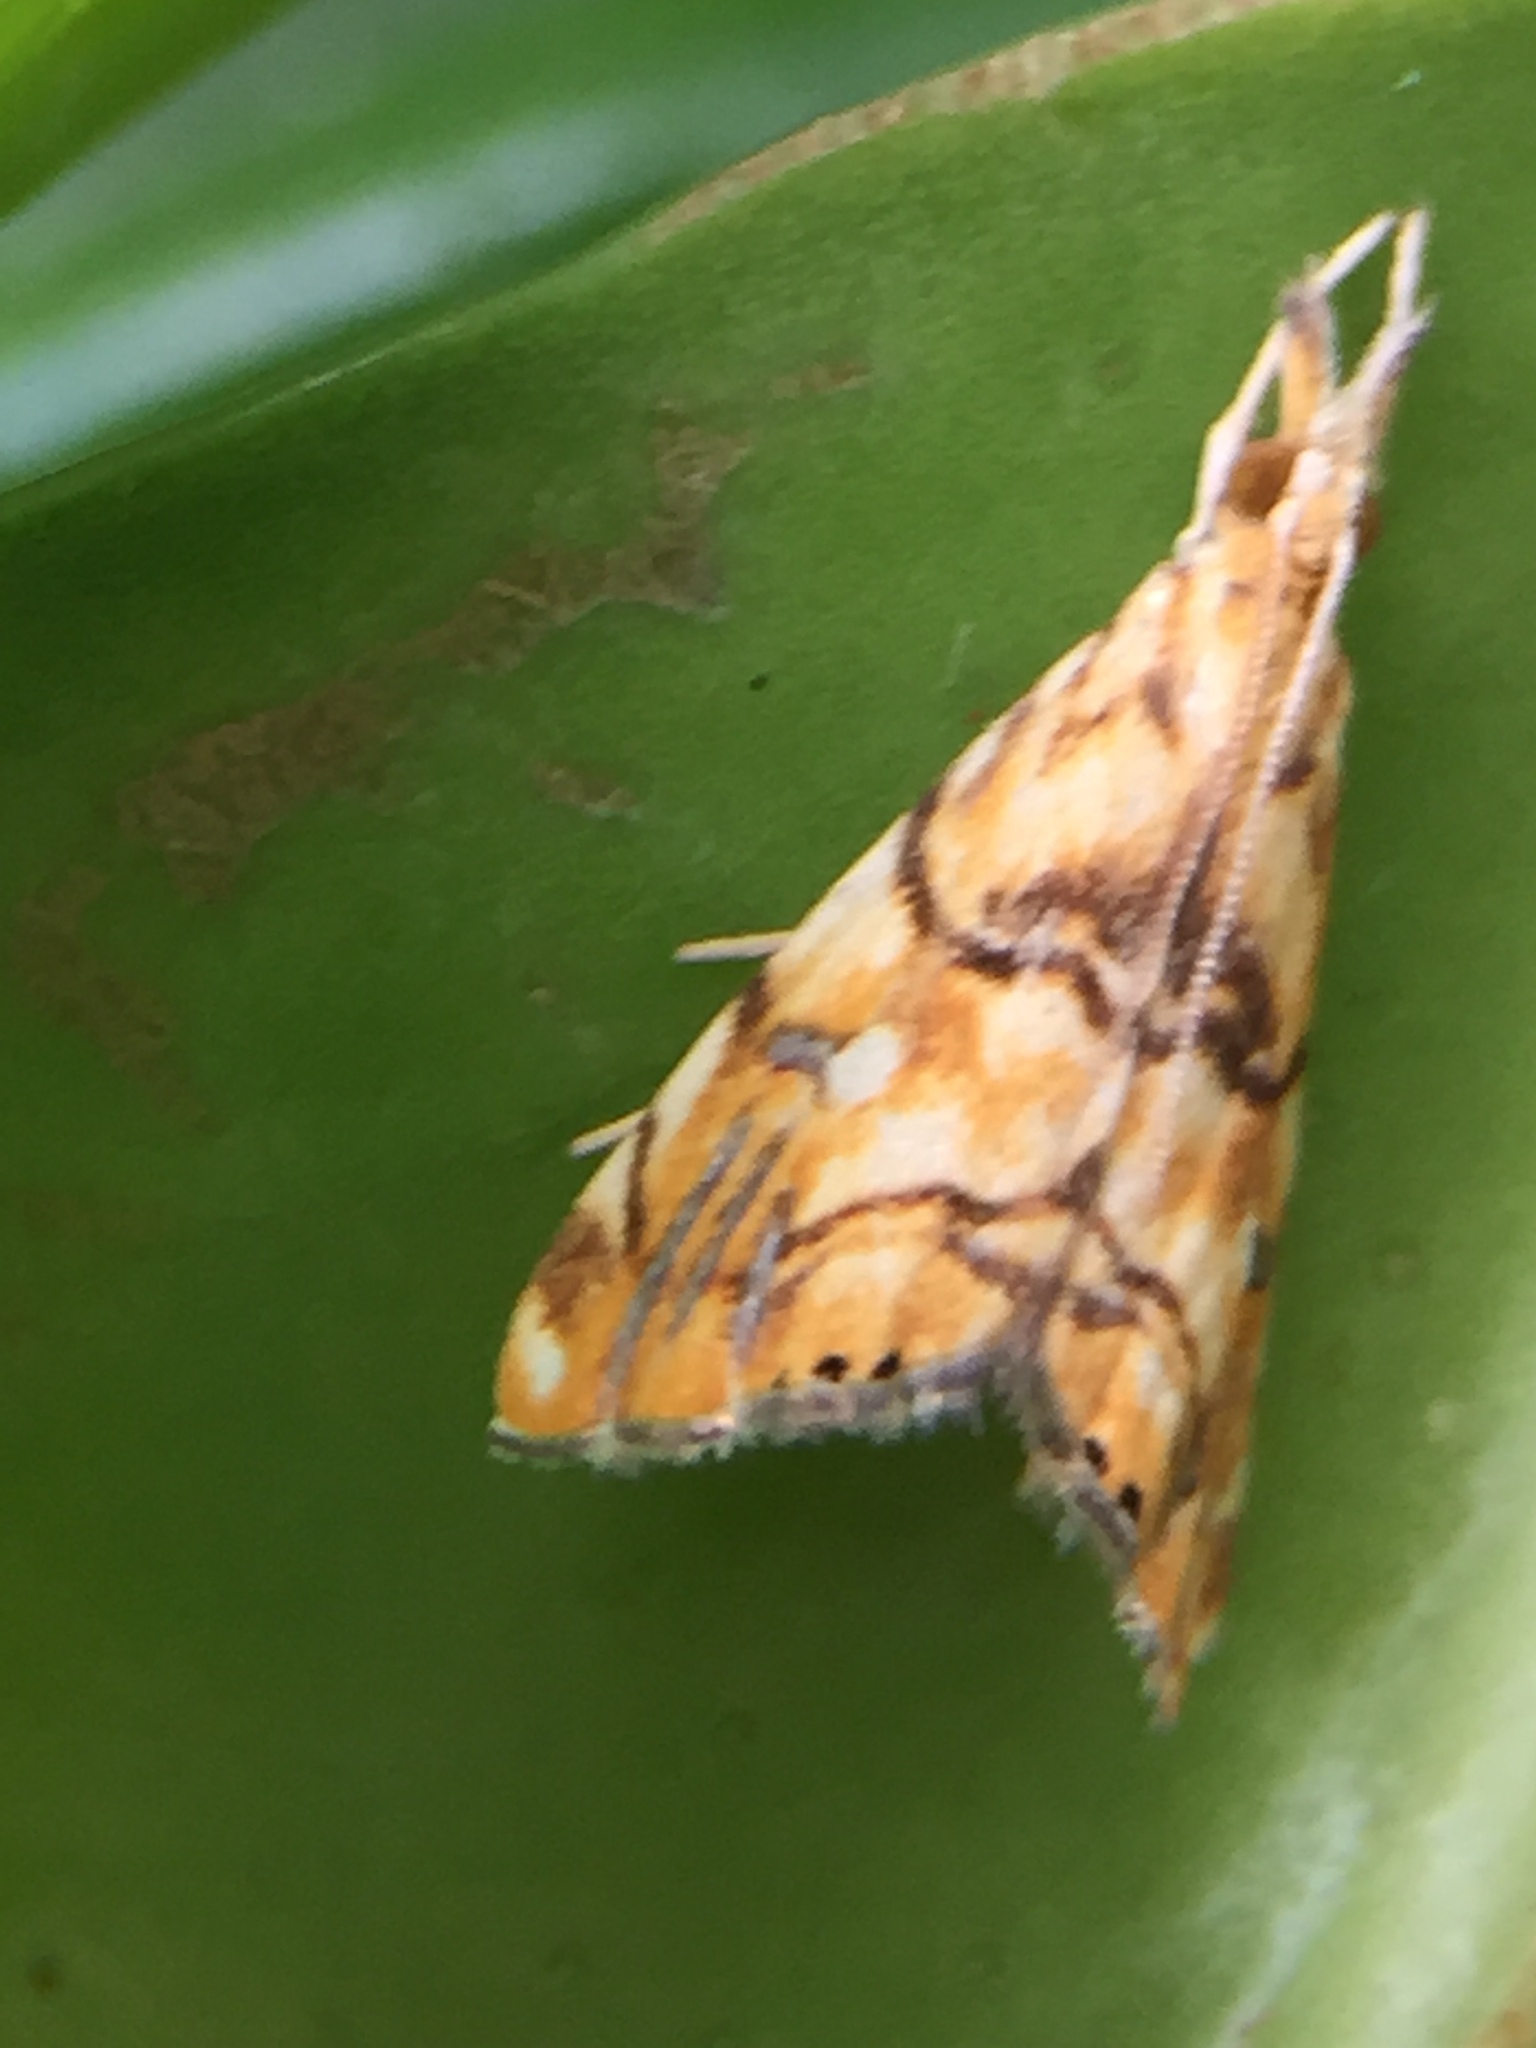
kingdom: Animalia
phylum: Arthropoda
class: Insecta
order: Lepidoptera
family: Crambidae
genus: Glaucocharis
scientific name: Glaucocharis selenaea
